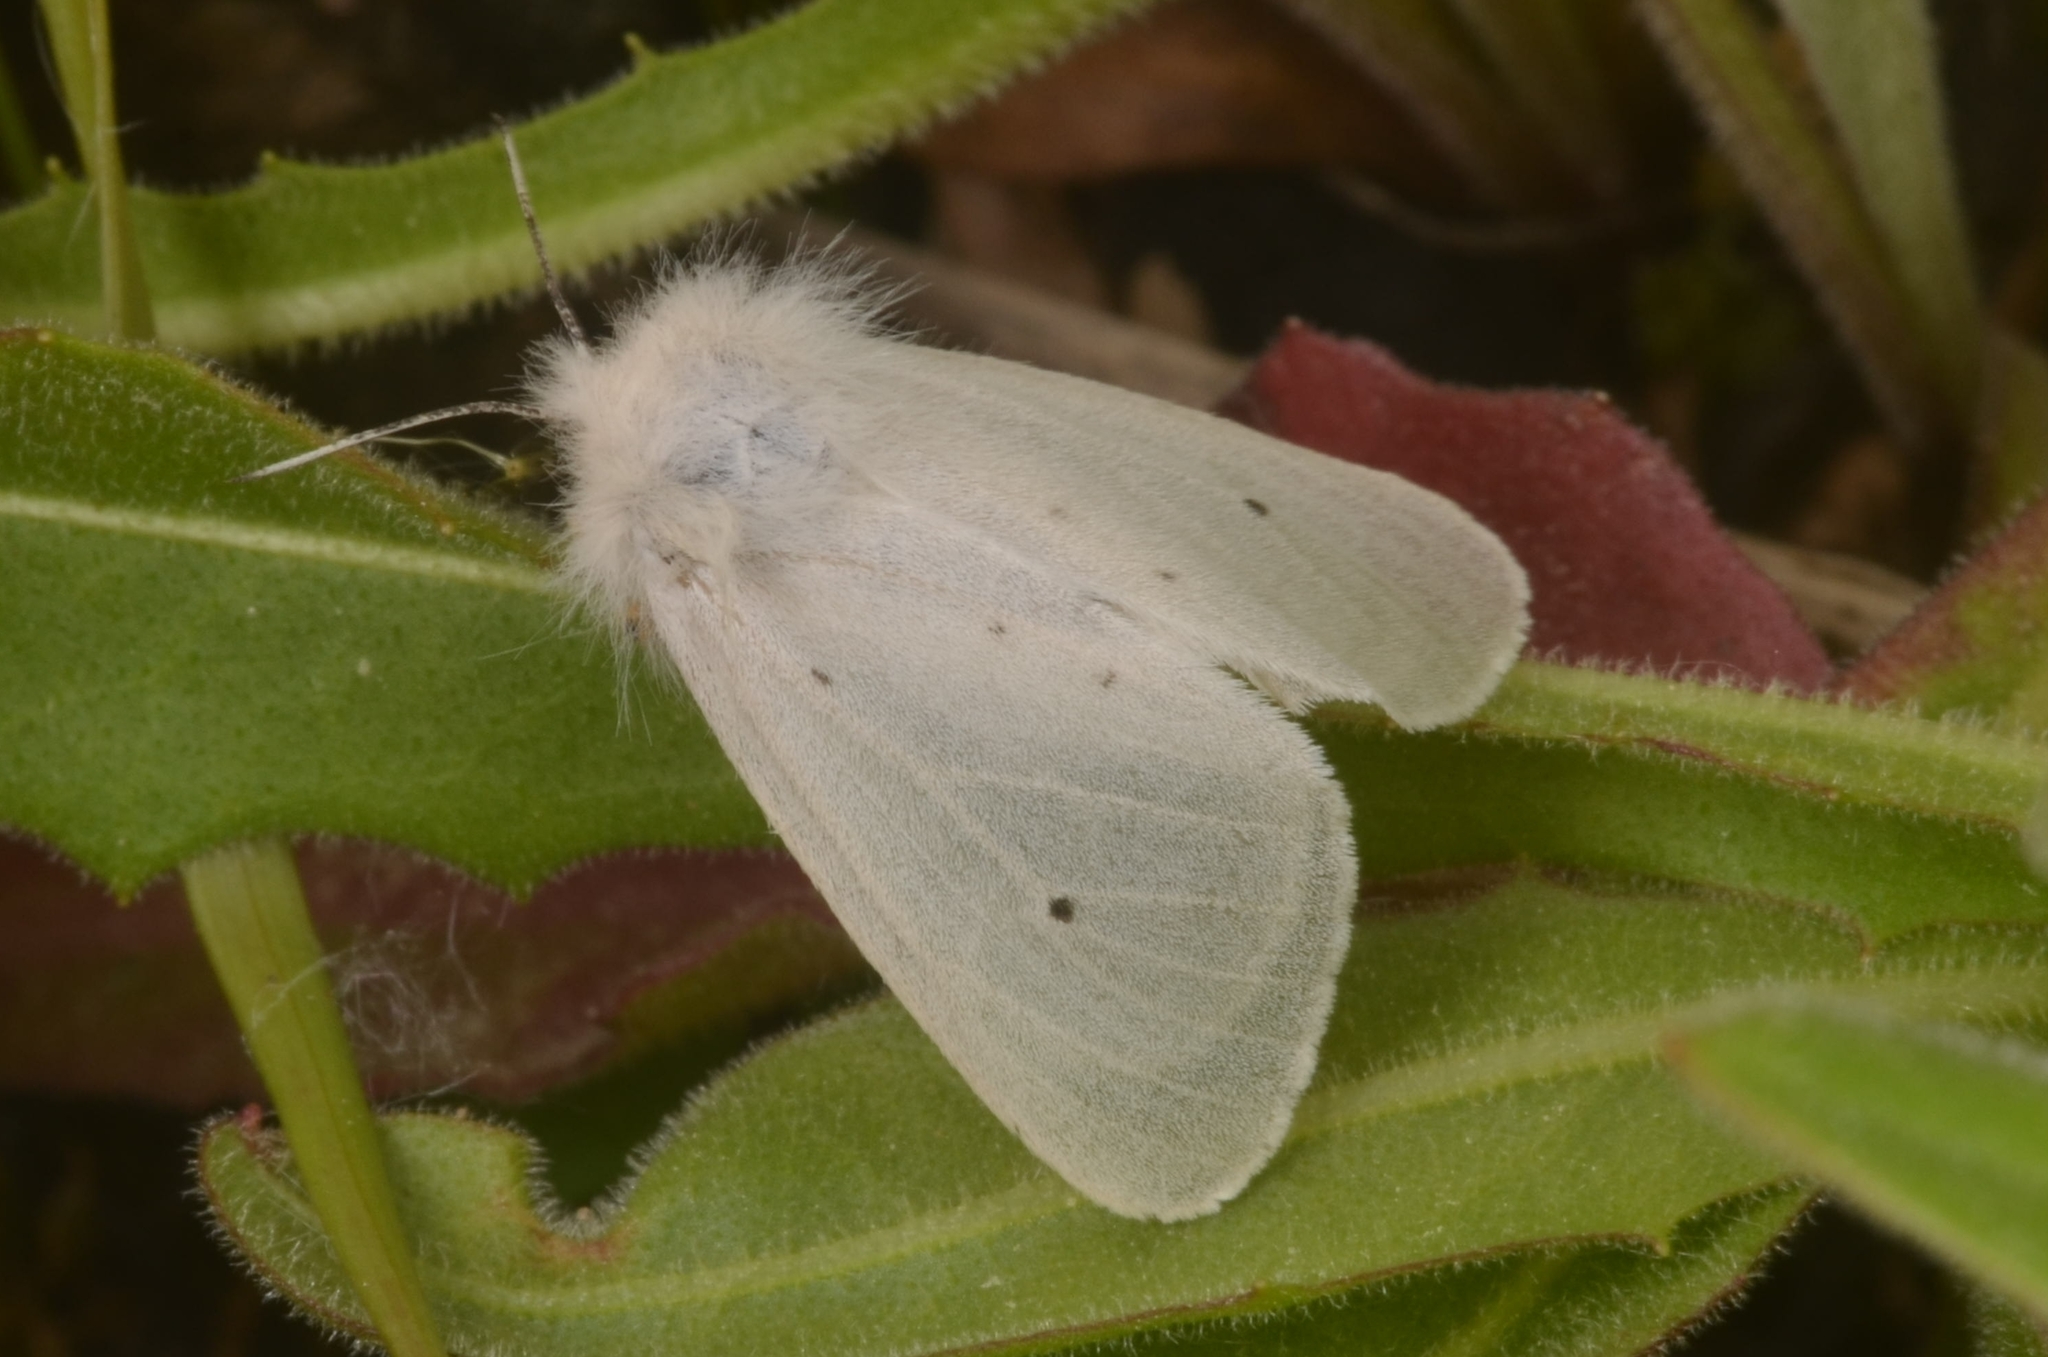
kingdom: Animalia
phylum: Arthropoda
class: Insecta
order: Lepidoptera
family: Erebidae
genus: Diaphora
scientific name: Diaphora mendica
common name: Muslin moth
